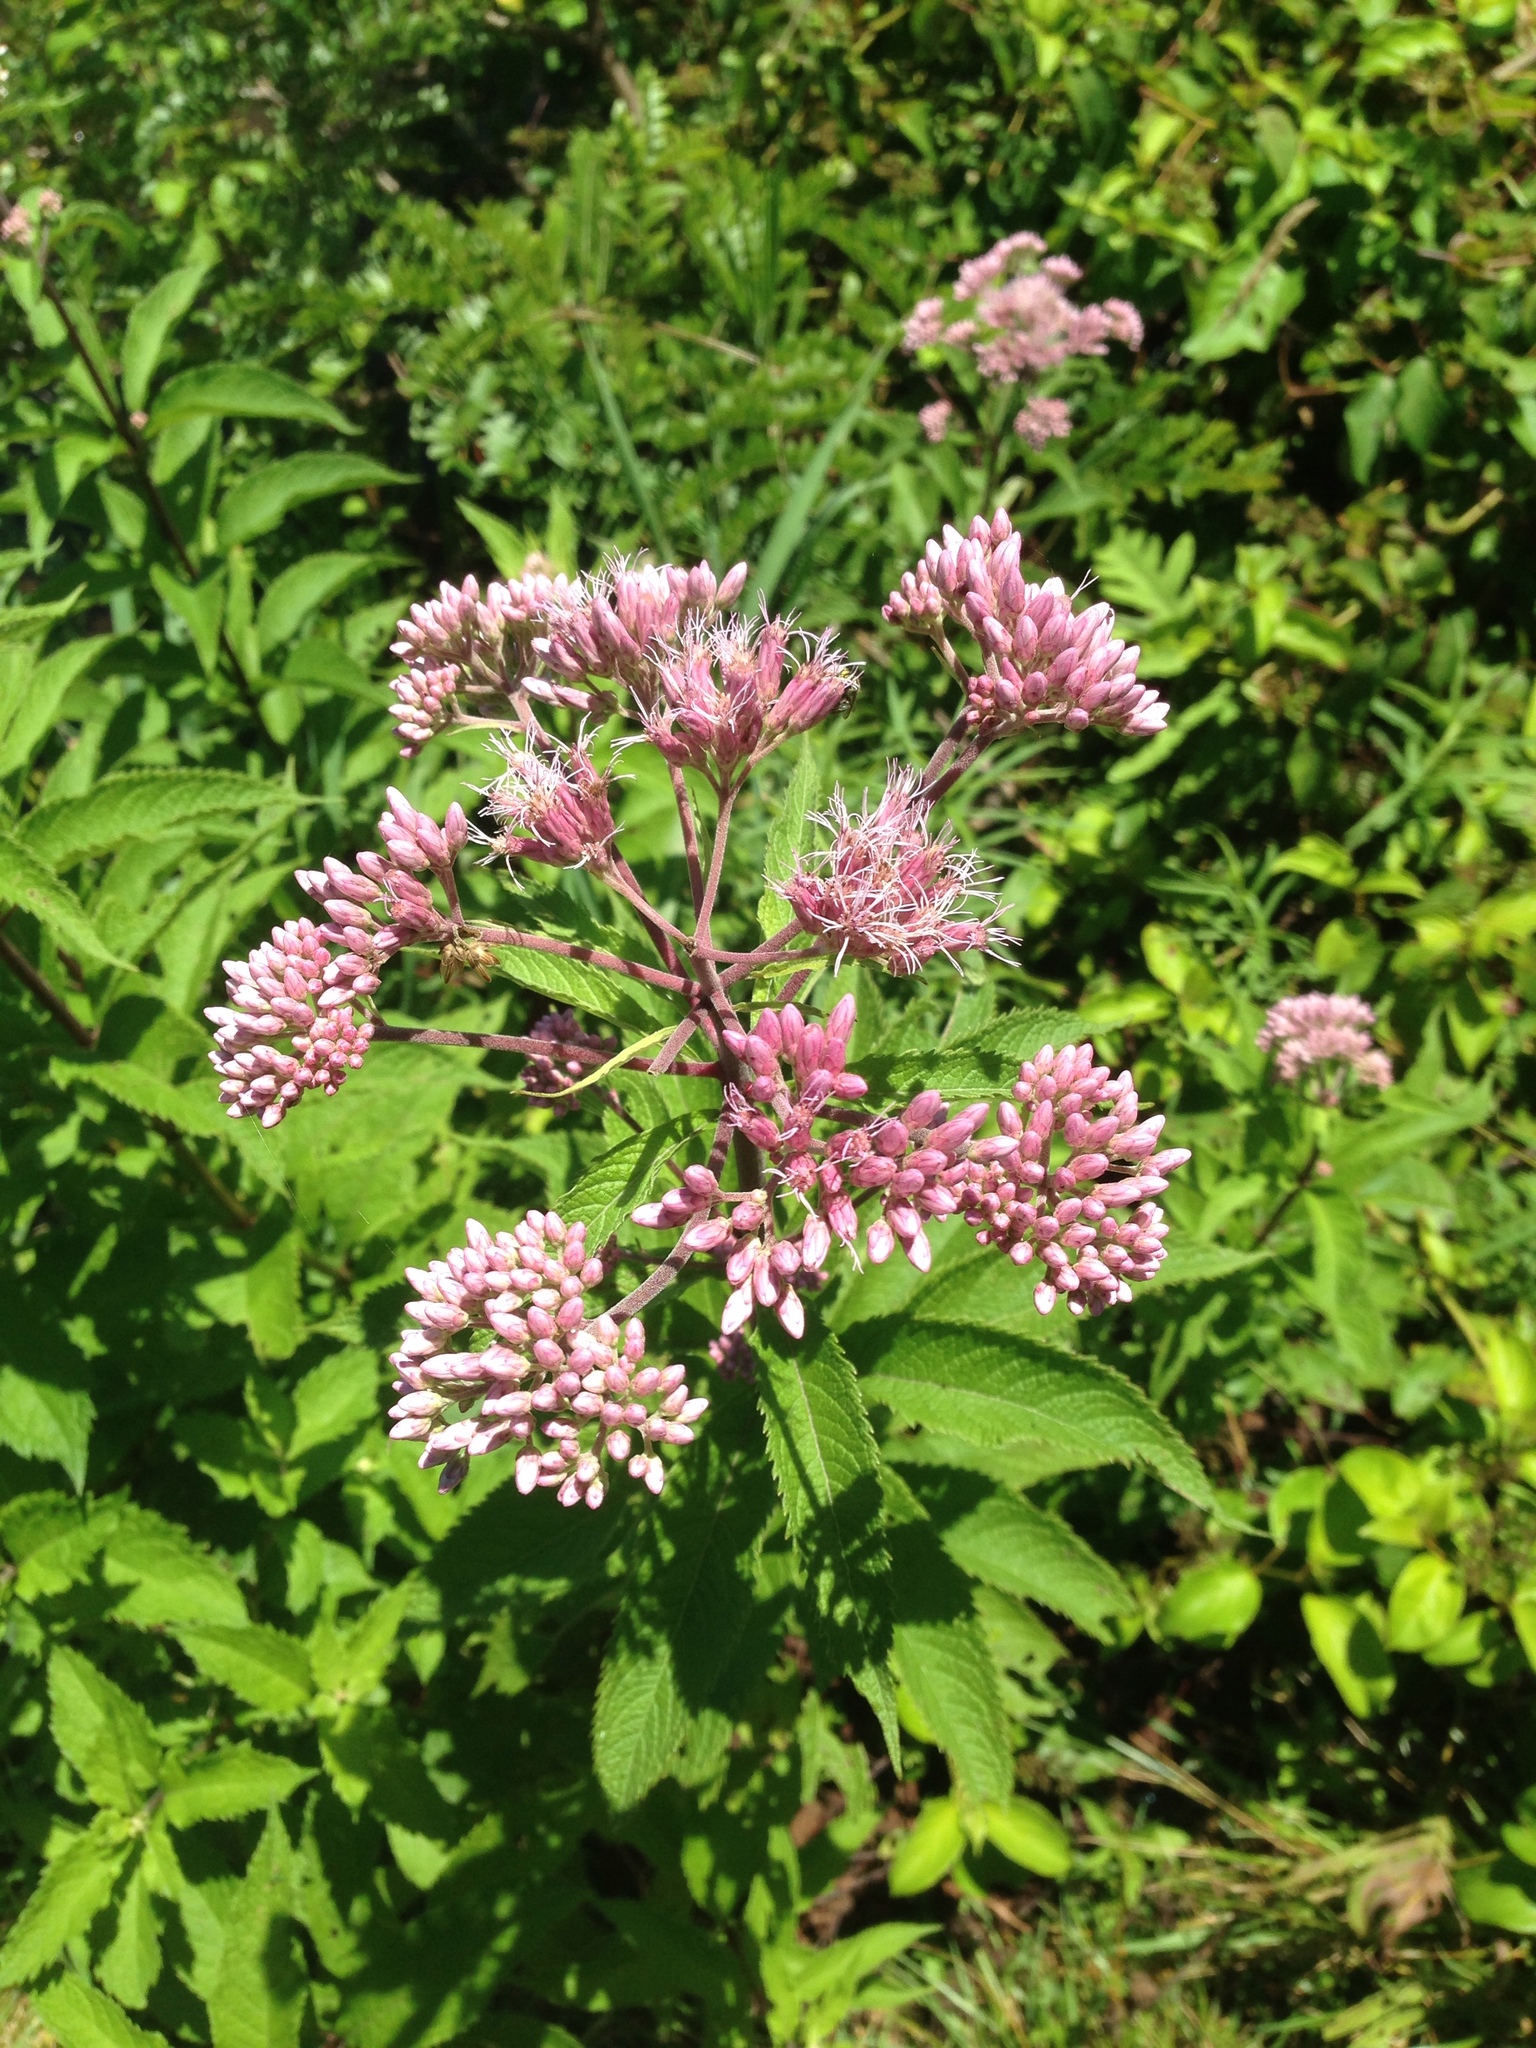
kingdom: Plantae
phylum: Tracheophyta
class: Magnoliopsida
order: Asterales
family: Asteraceae
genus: Eutrochium
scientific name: Eutrochium maculatum
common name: Spotted joe pye weed
